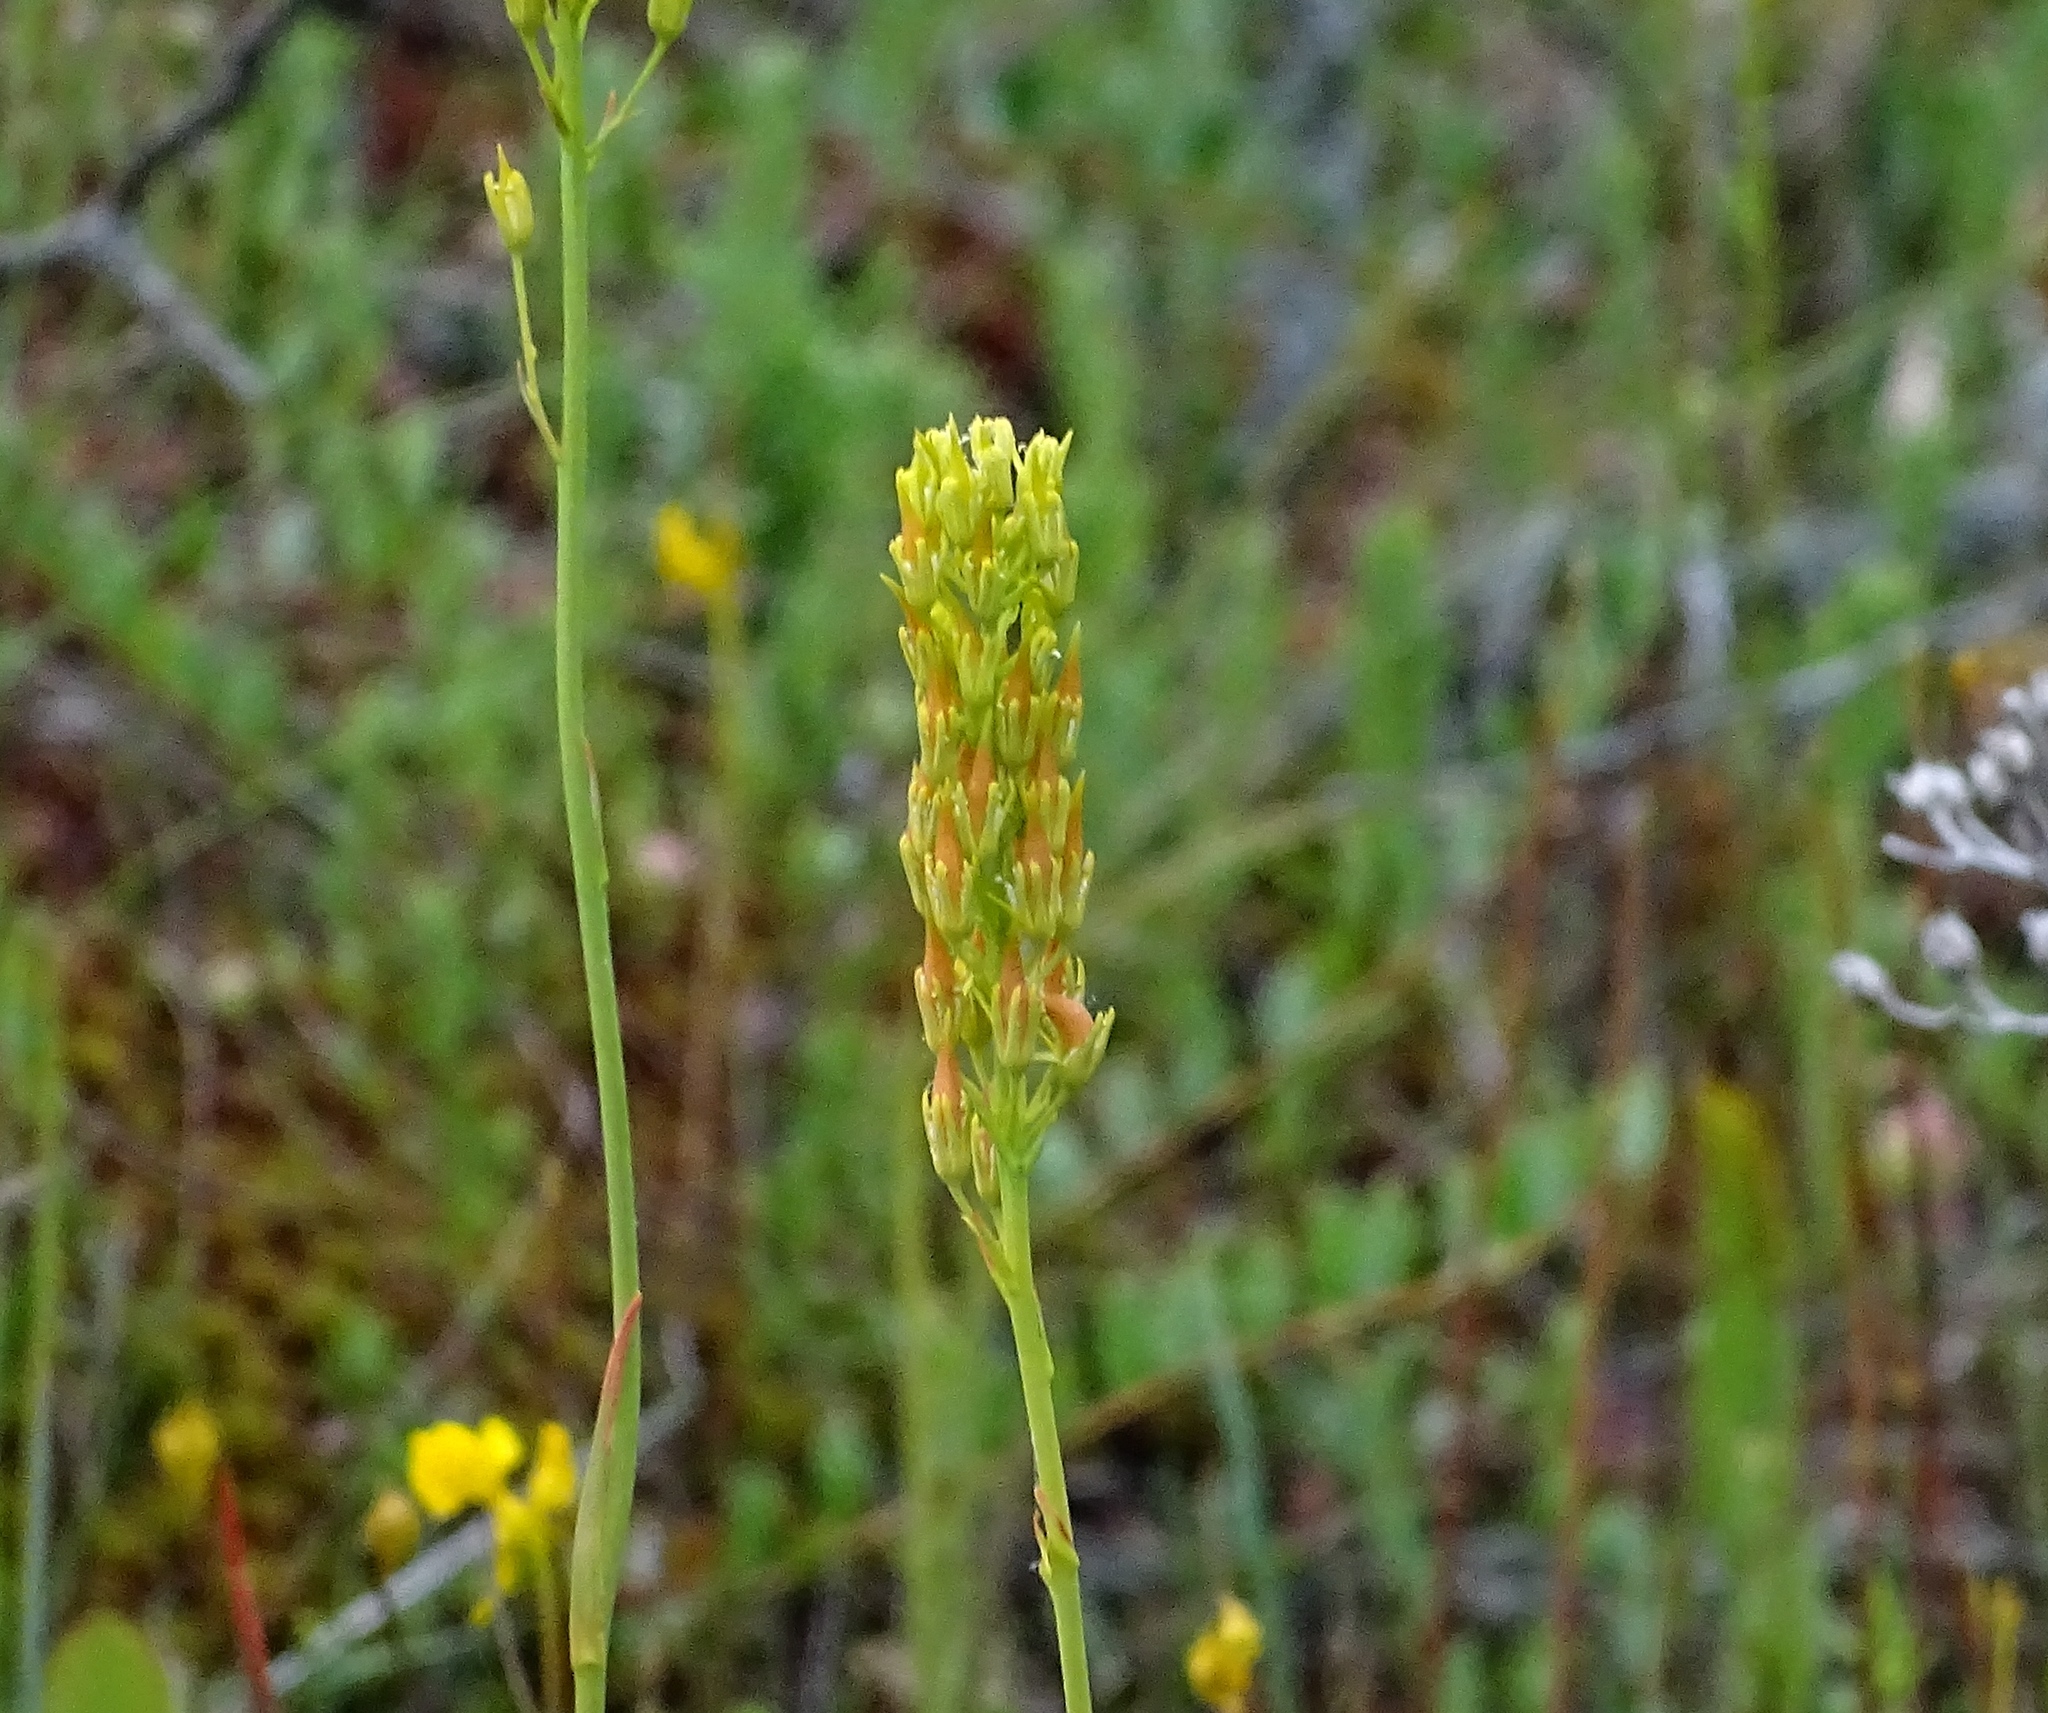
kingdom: Plantae
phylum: Tracheophyta
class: Liliopsida
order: Dioscoreales
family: Nartheciaceae
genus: Narthecium
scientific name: Narthecium americanum
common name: Bog-asphodel
